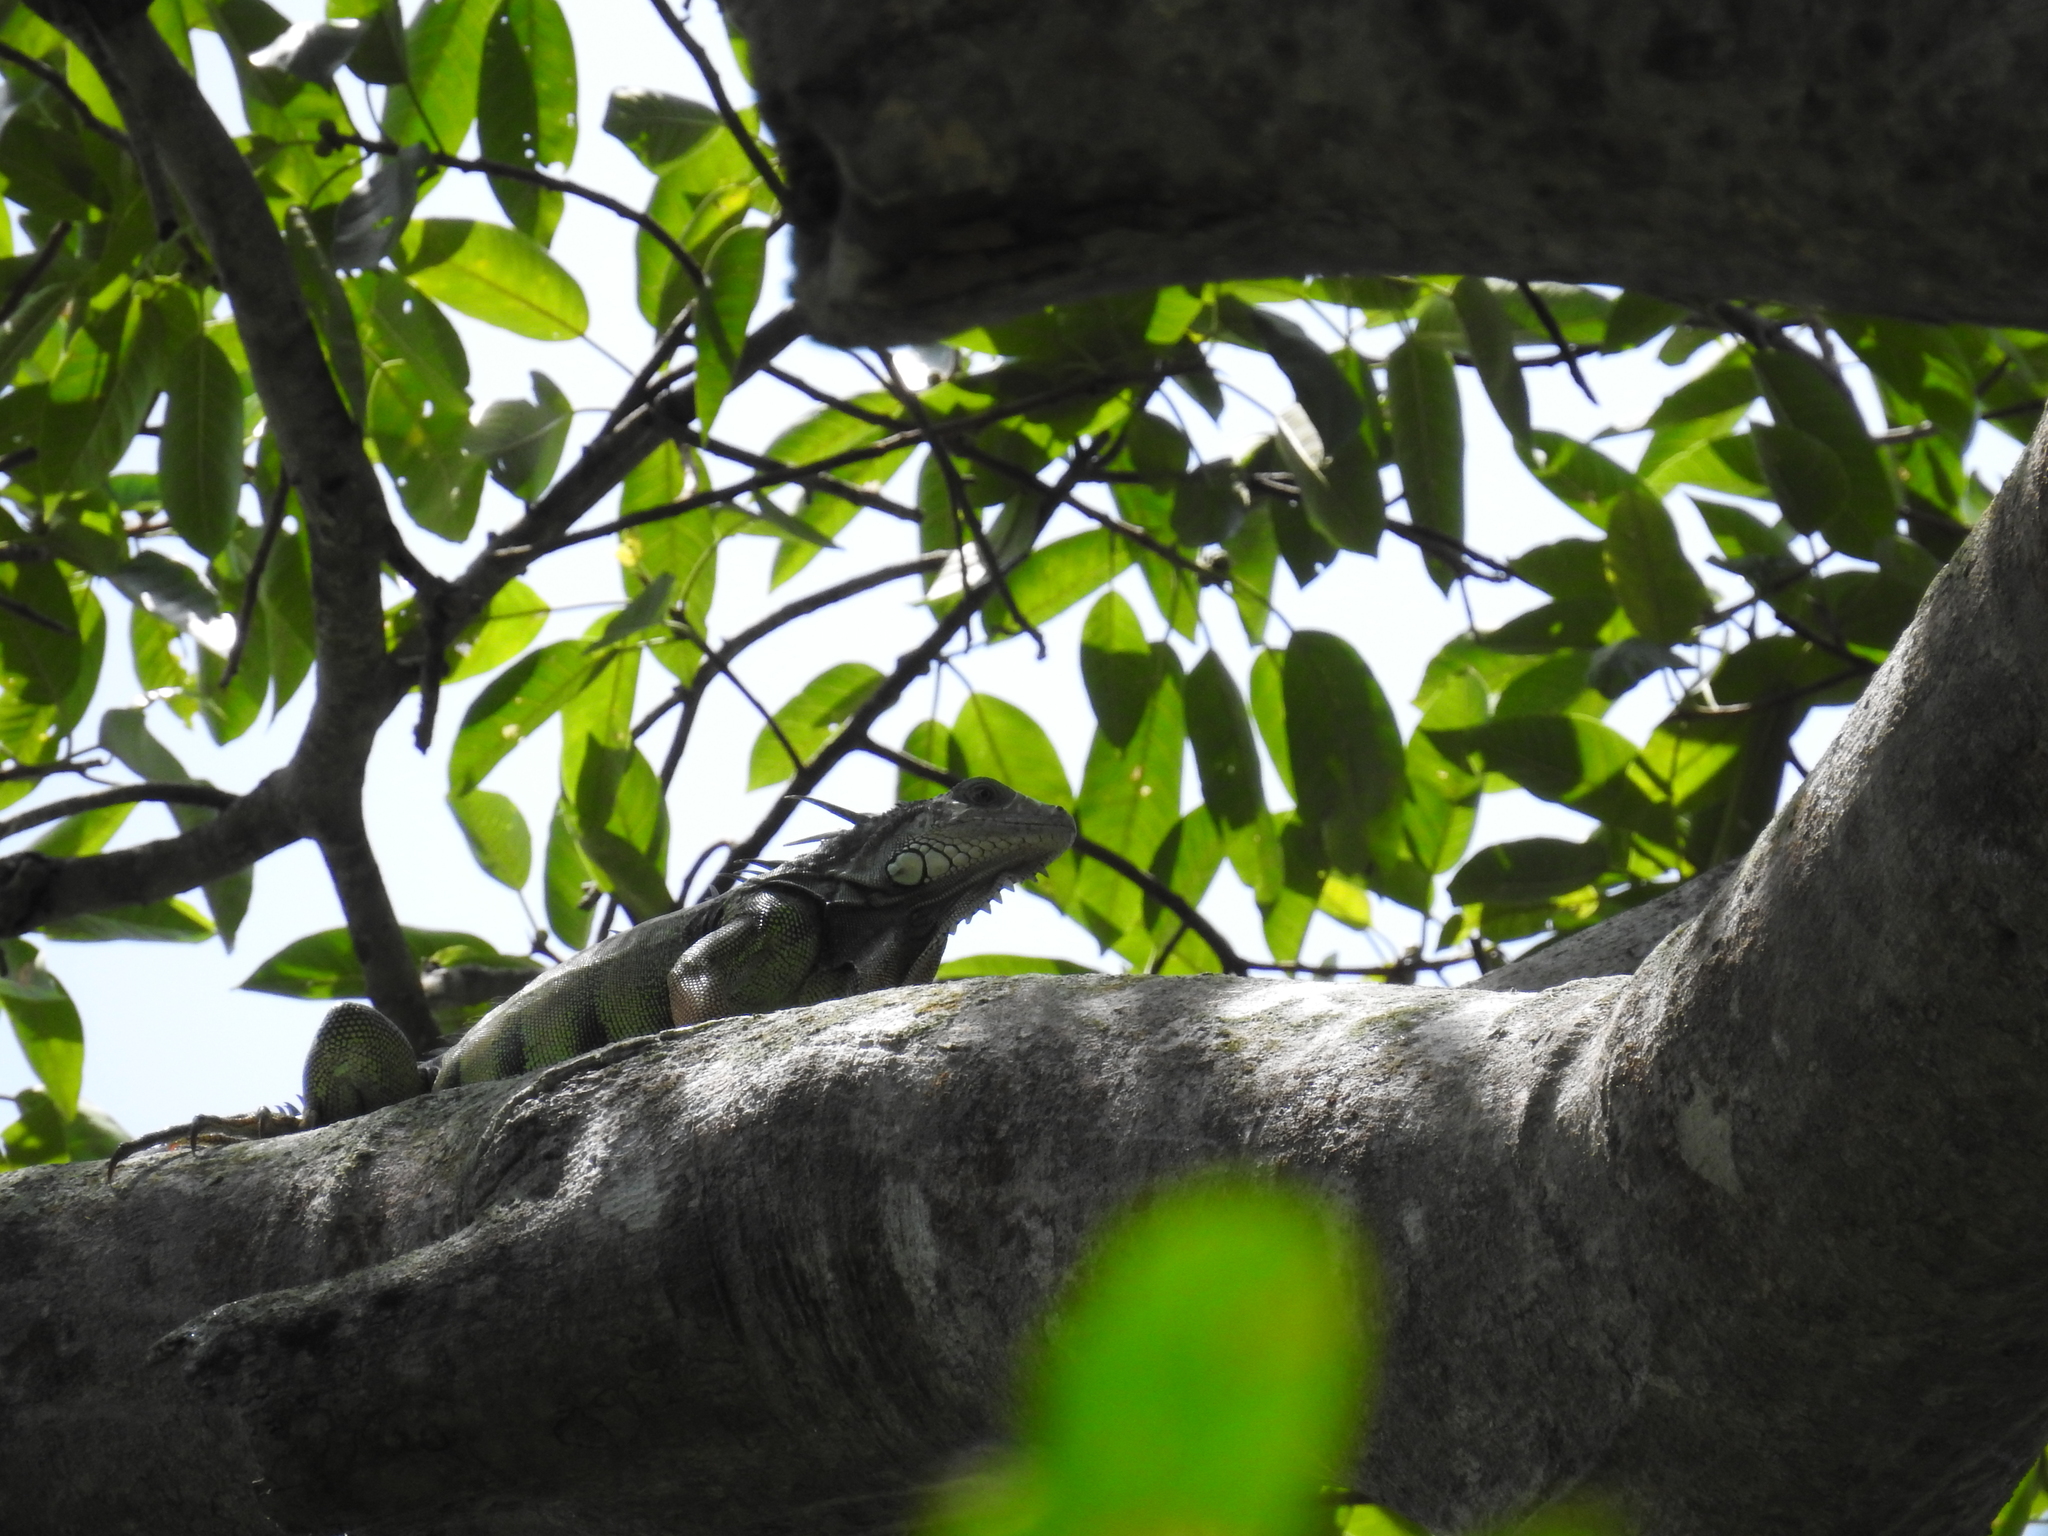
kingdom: Animalia
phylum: Chordata
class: Squamata
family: Iguanidae
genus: Iguana
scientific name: Iguana iguana
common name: Green iguana
